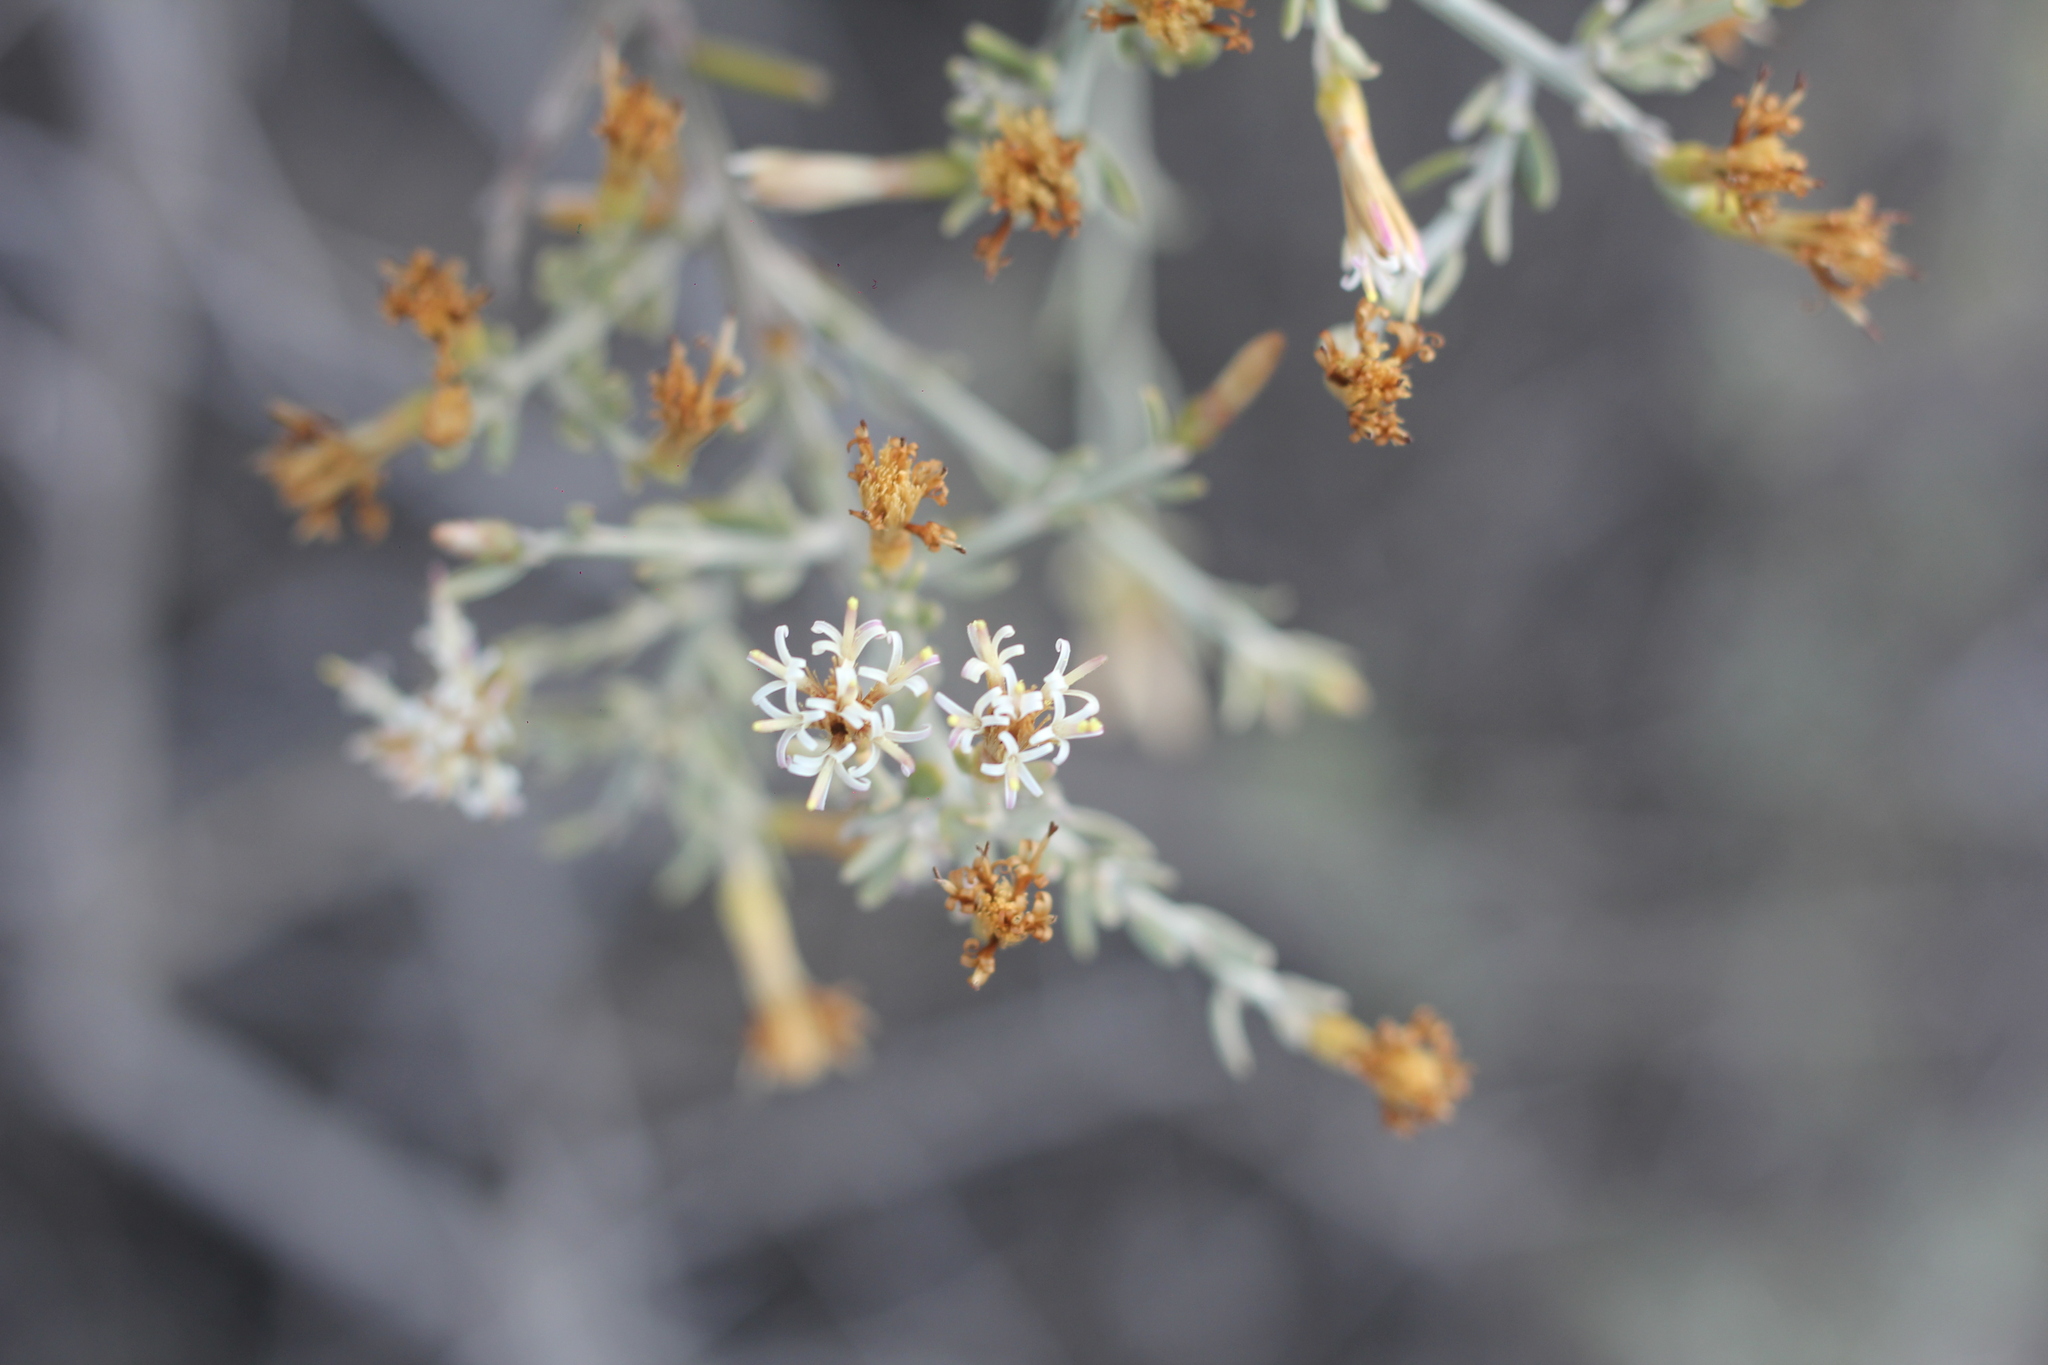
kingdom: Plantae
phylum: Tracheophyta
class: Magnoliopsida
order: Asterales
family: Asteraceae
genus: Cyclolepis
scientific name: Cyclolepis genistoides
